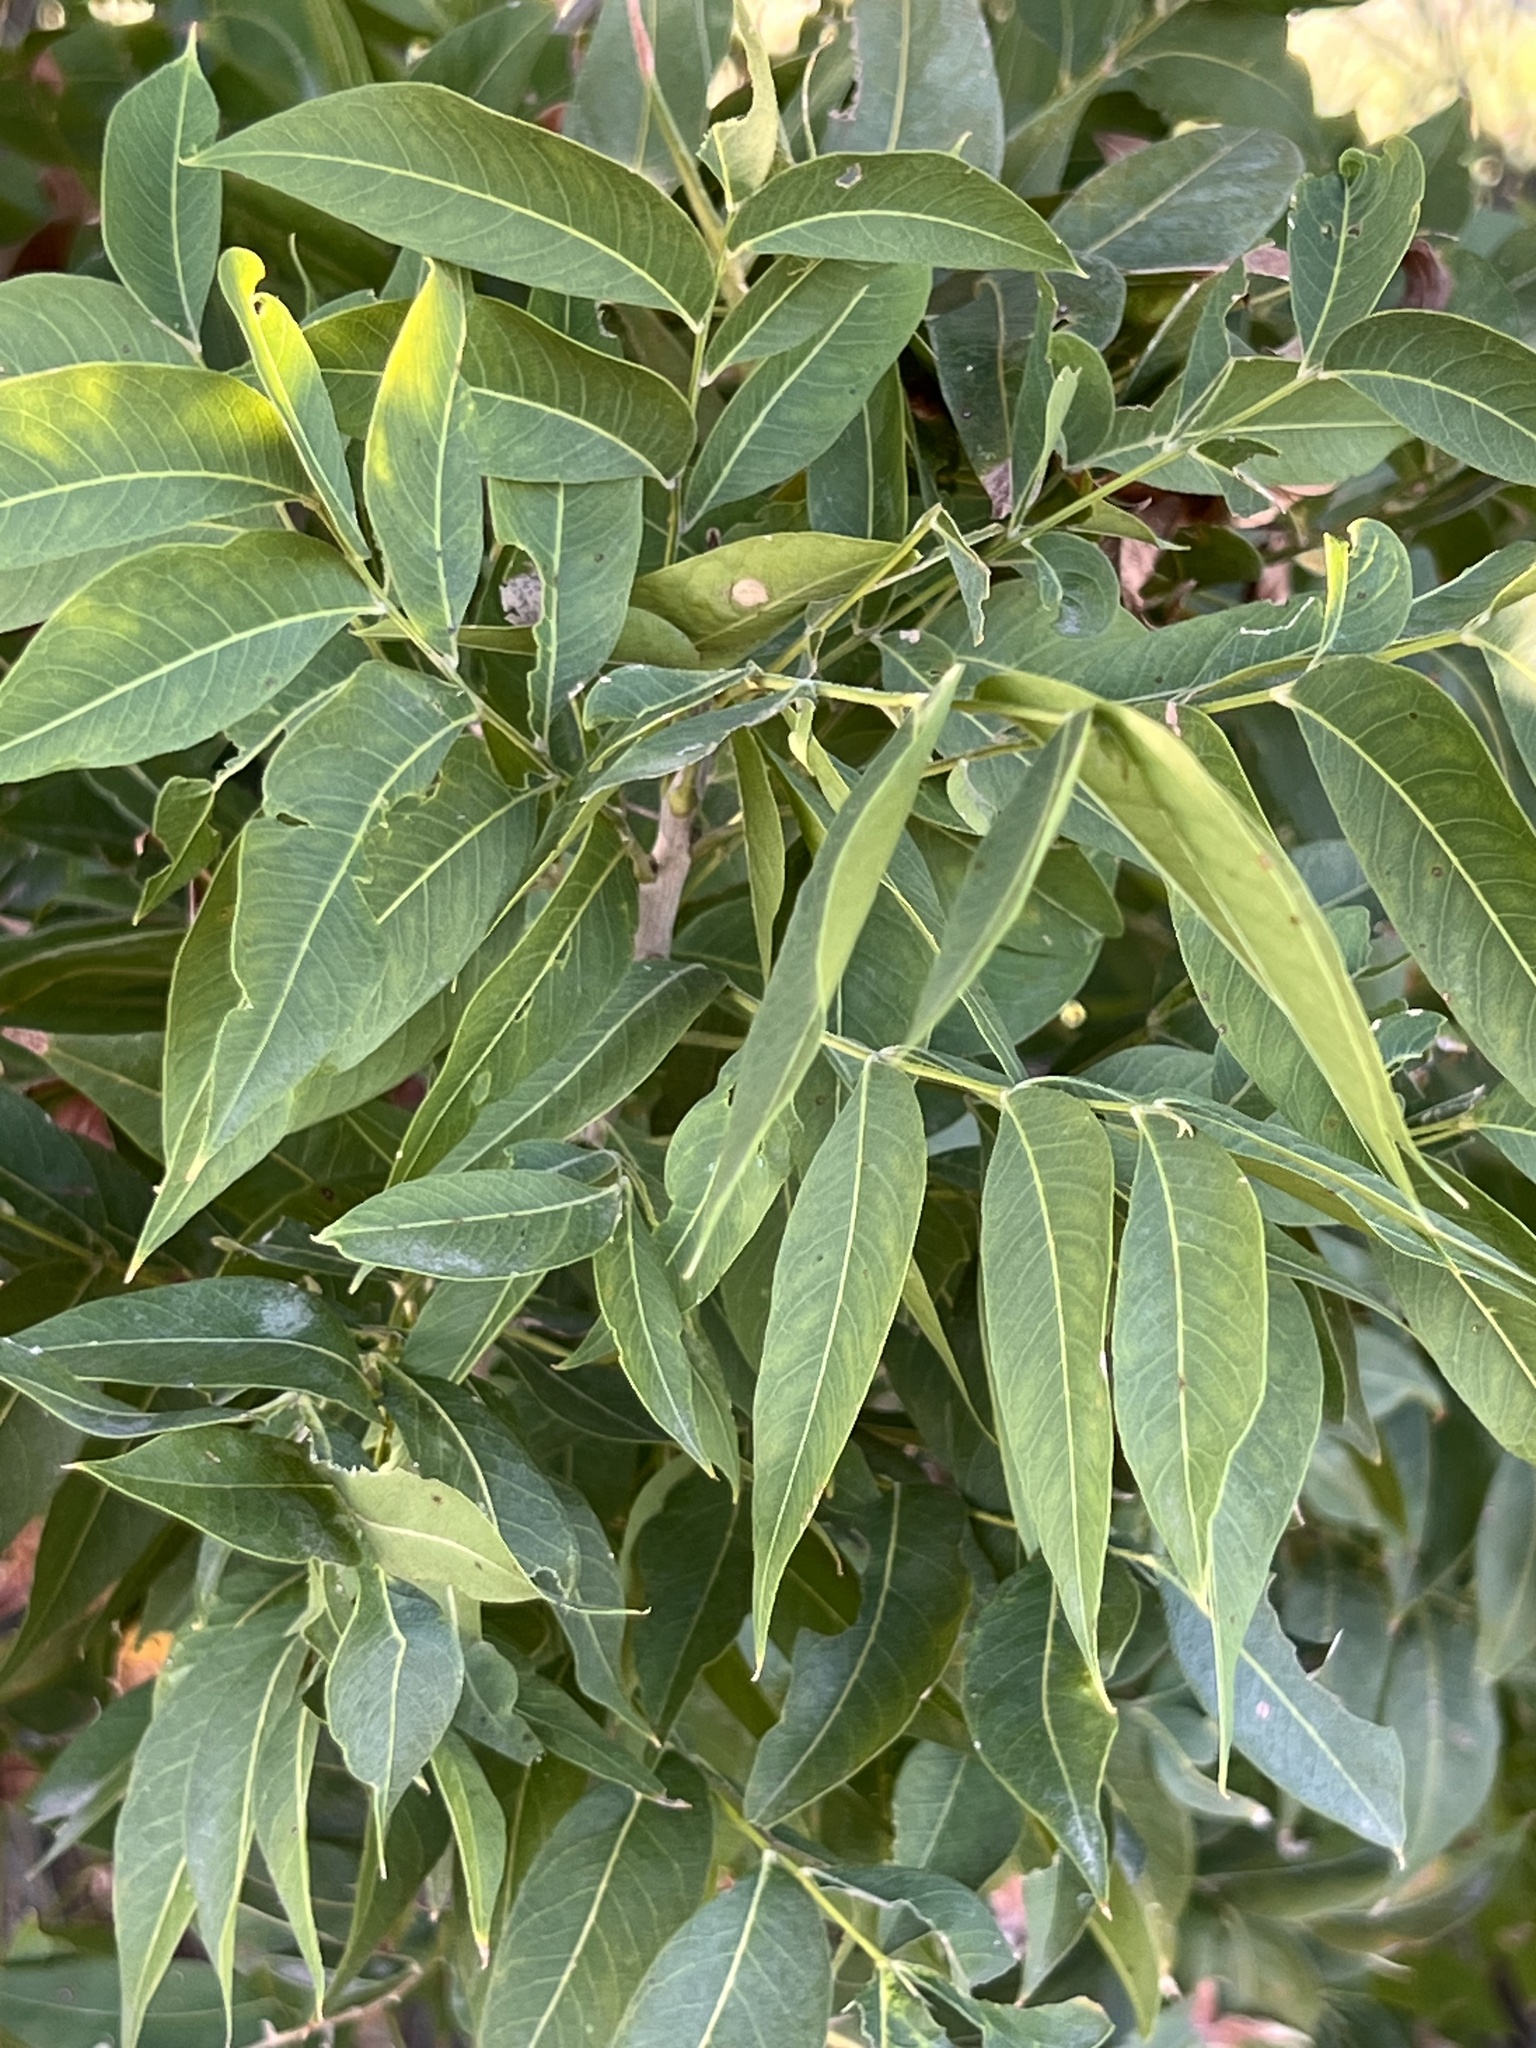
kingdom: Plantae
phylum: Tracheophyta
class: Magnoliopsida
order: Sapindales
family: Sapindaceae
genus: Sapindus
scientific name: Sapindus drummondii
